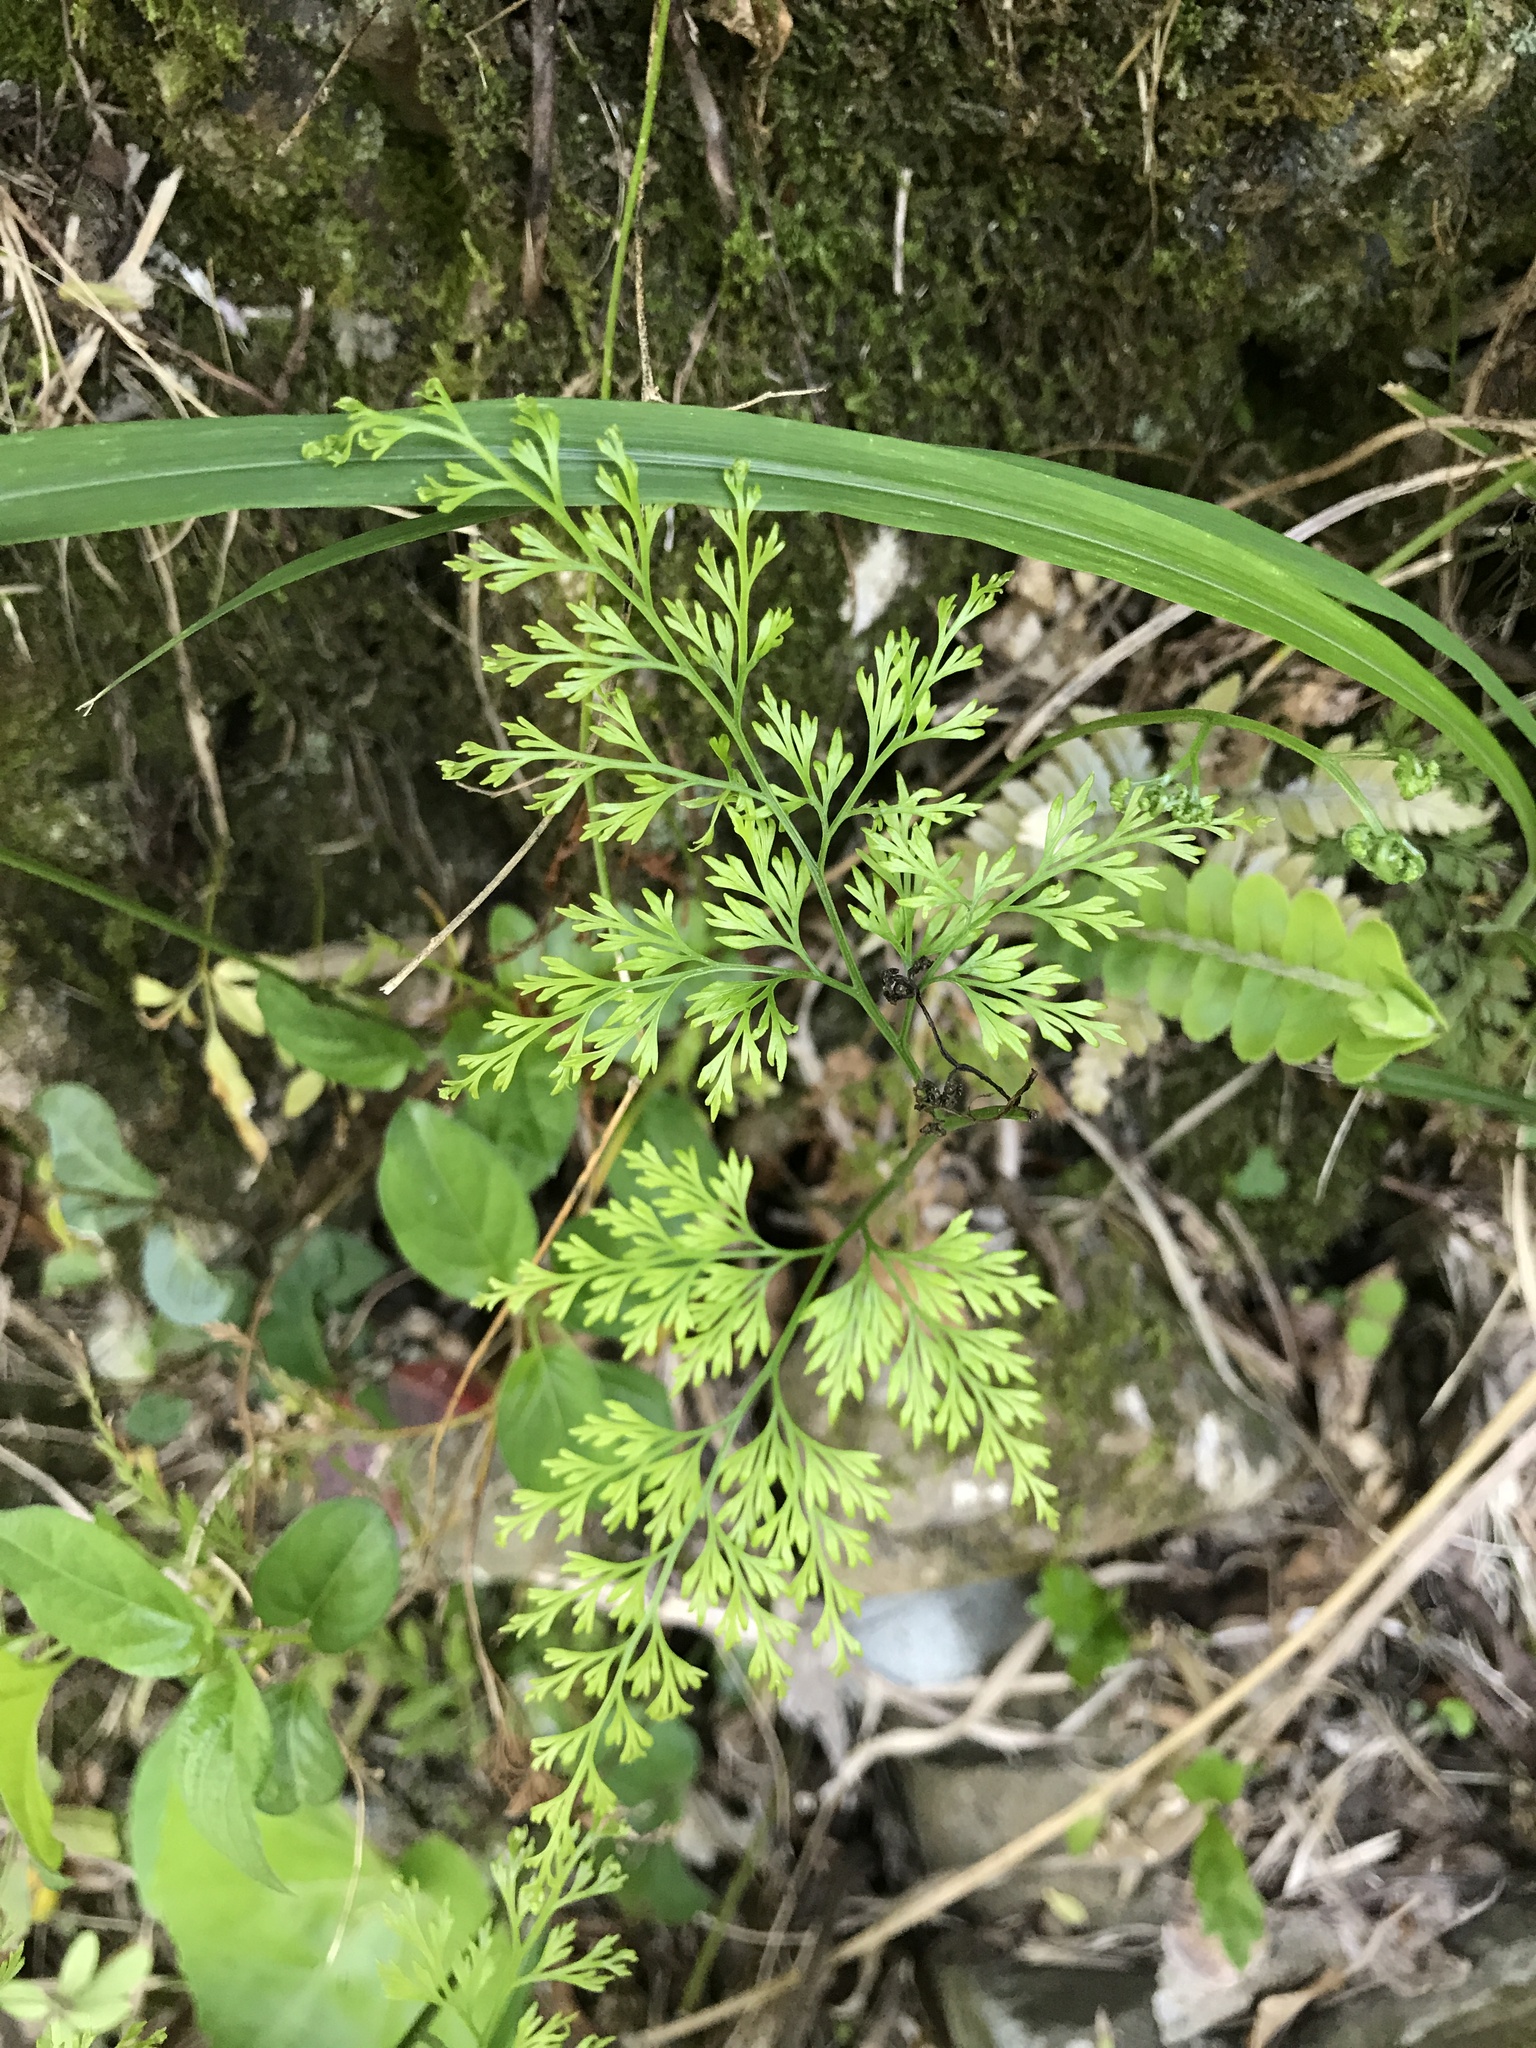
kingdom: Plantae
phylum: Tracheophyta
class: Polypodiopsida
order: Polypodiales
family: Pteridaceae
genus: Onychium
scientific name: Onychium japonicum
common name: Carrot fern
